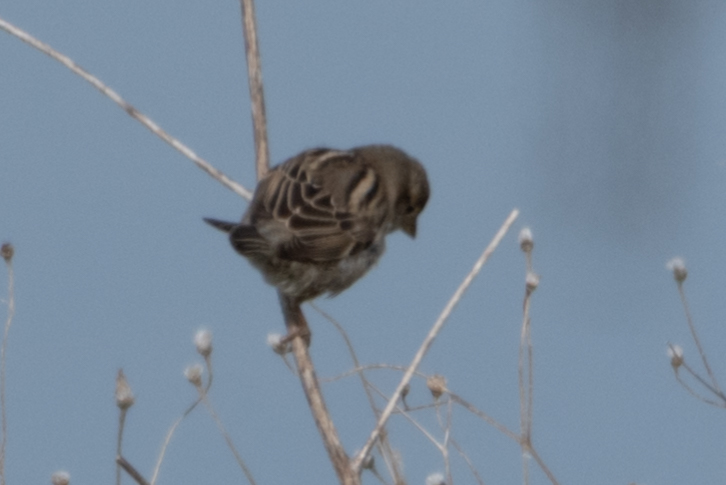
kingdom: Animalia
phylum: Chordata
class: Aves
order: Passeriformes
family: Passeridae
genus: Passer
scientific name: Passer domesticus
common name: House sparrow
